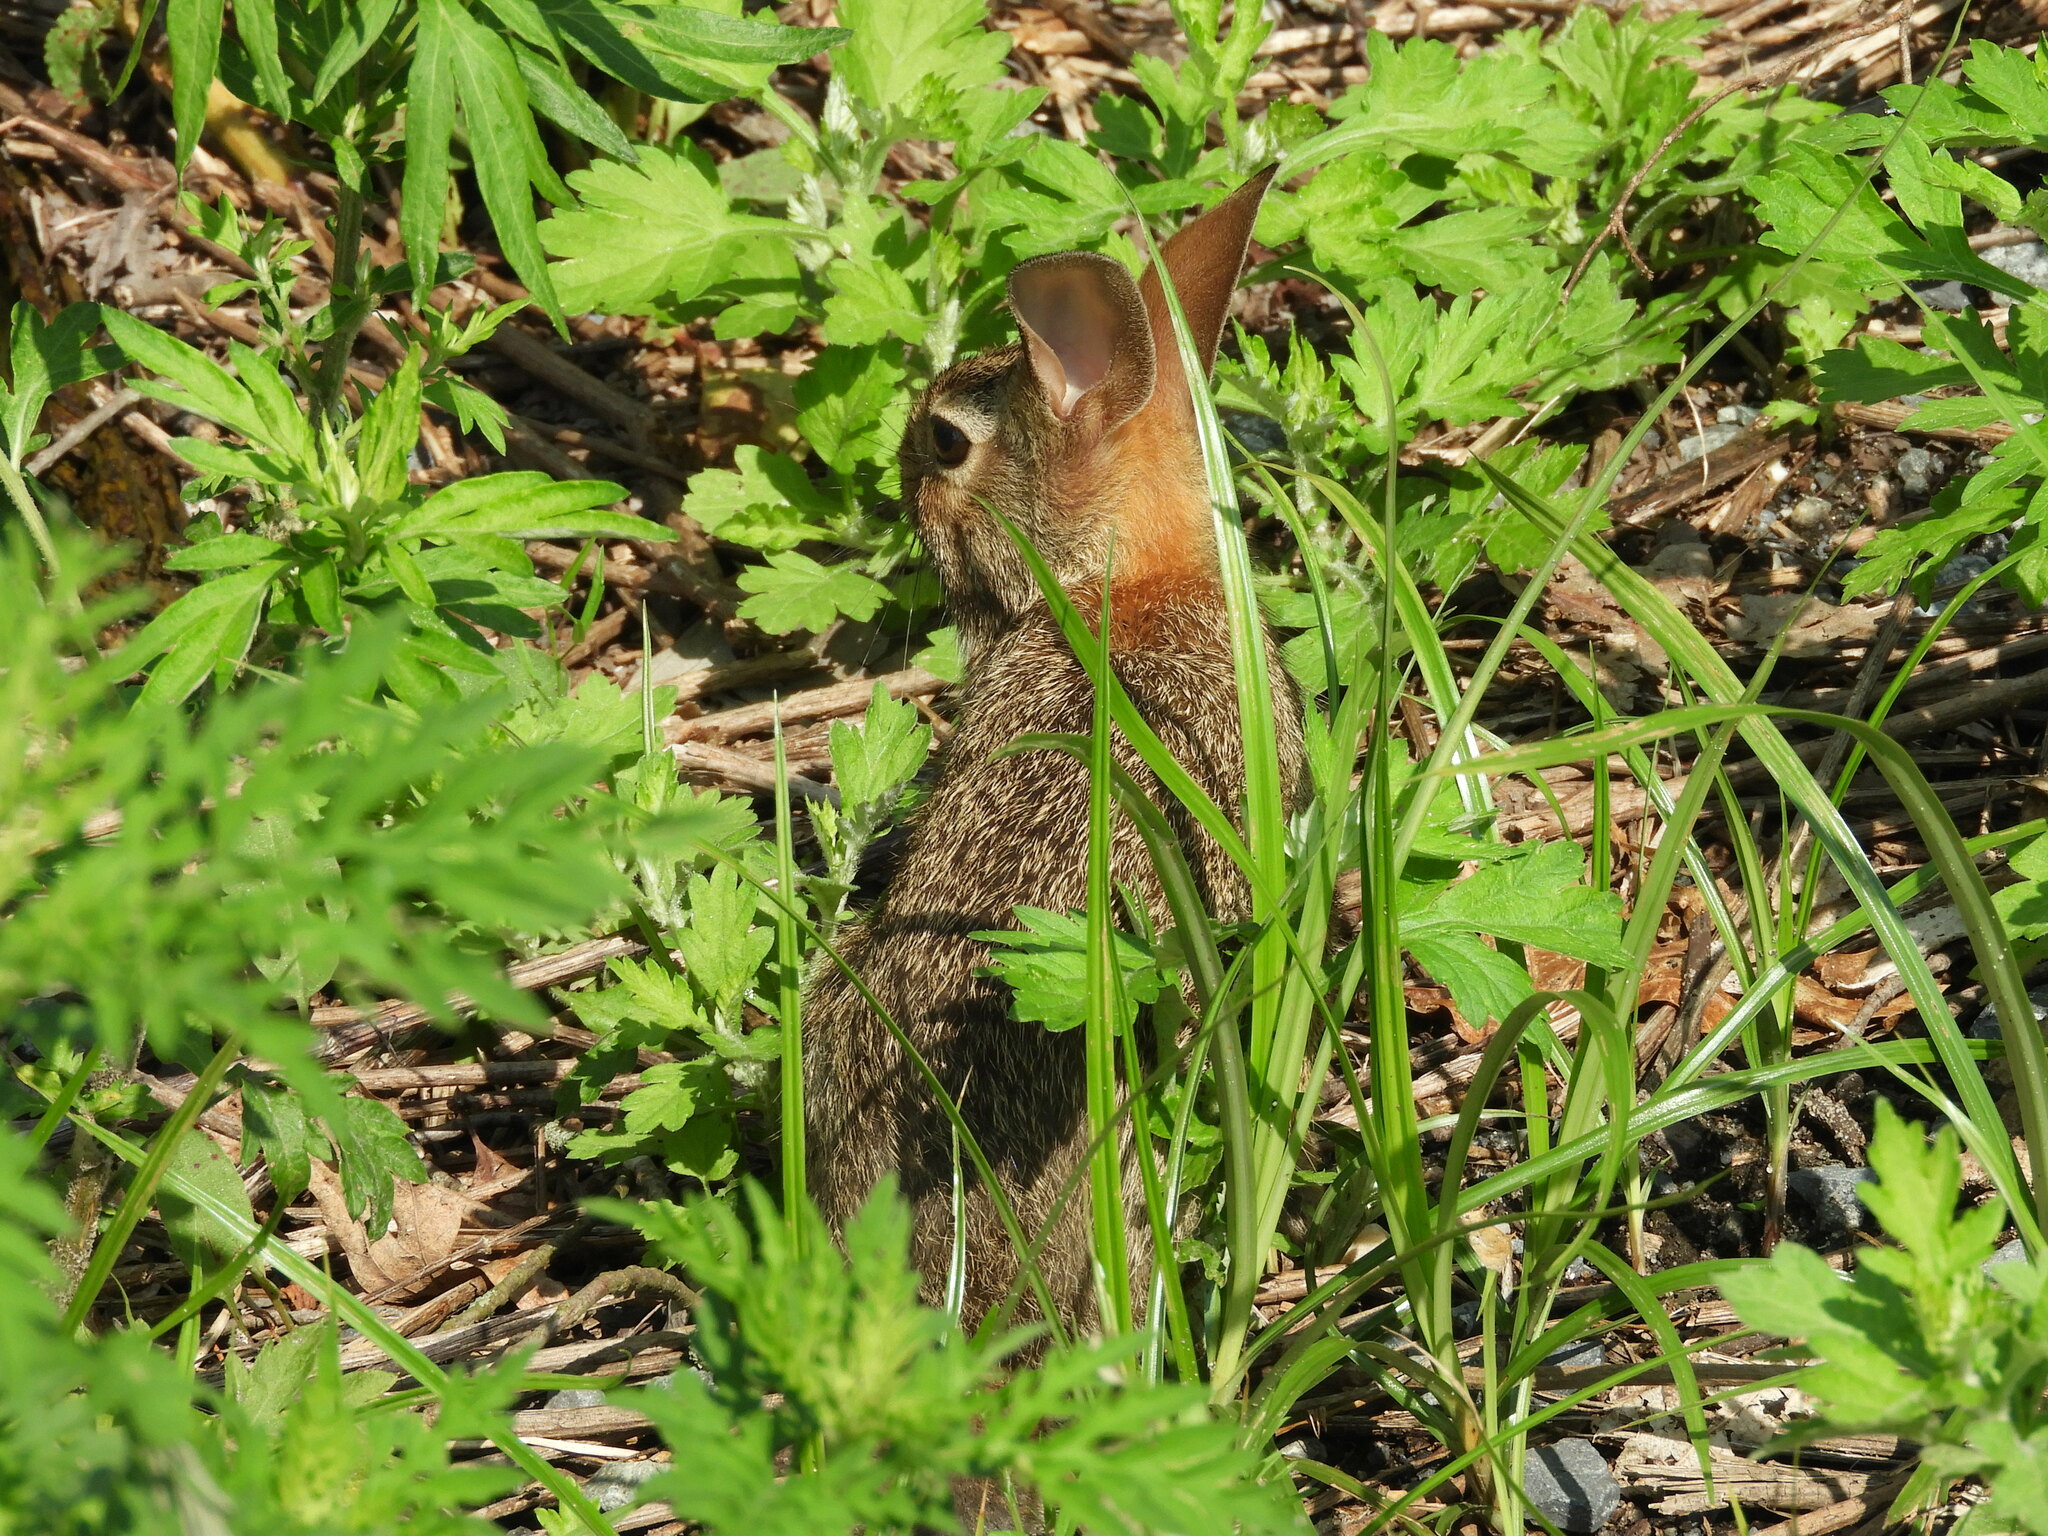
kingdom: Animalia
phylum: Chordata
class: Mammalia
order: Lagomorpha
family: Leporidae
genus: Sylvilagus
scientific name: Sylvilagus floridanus
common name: Eastern cottontail
